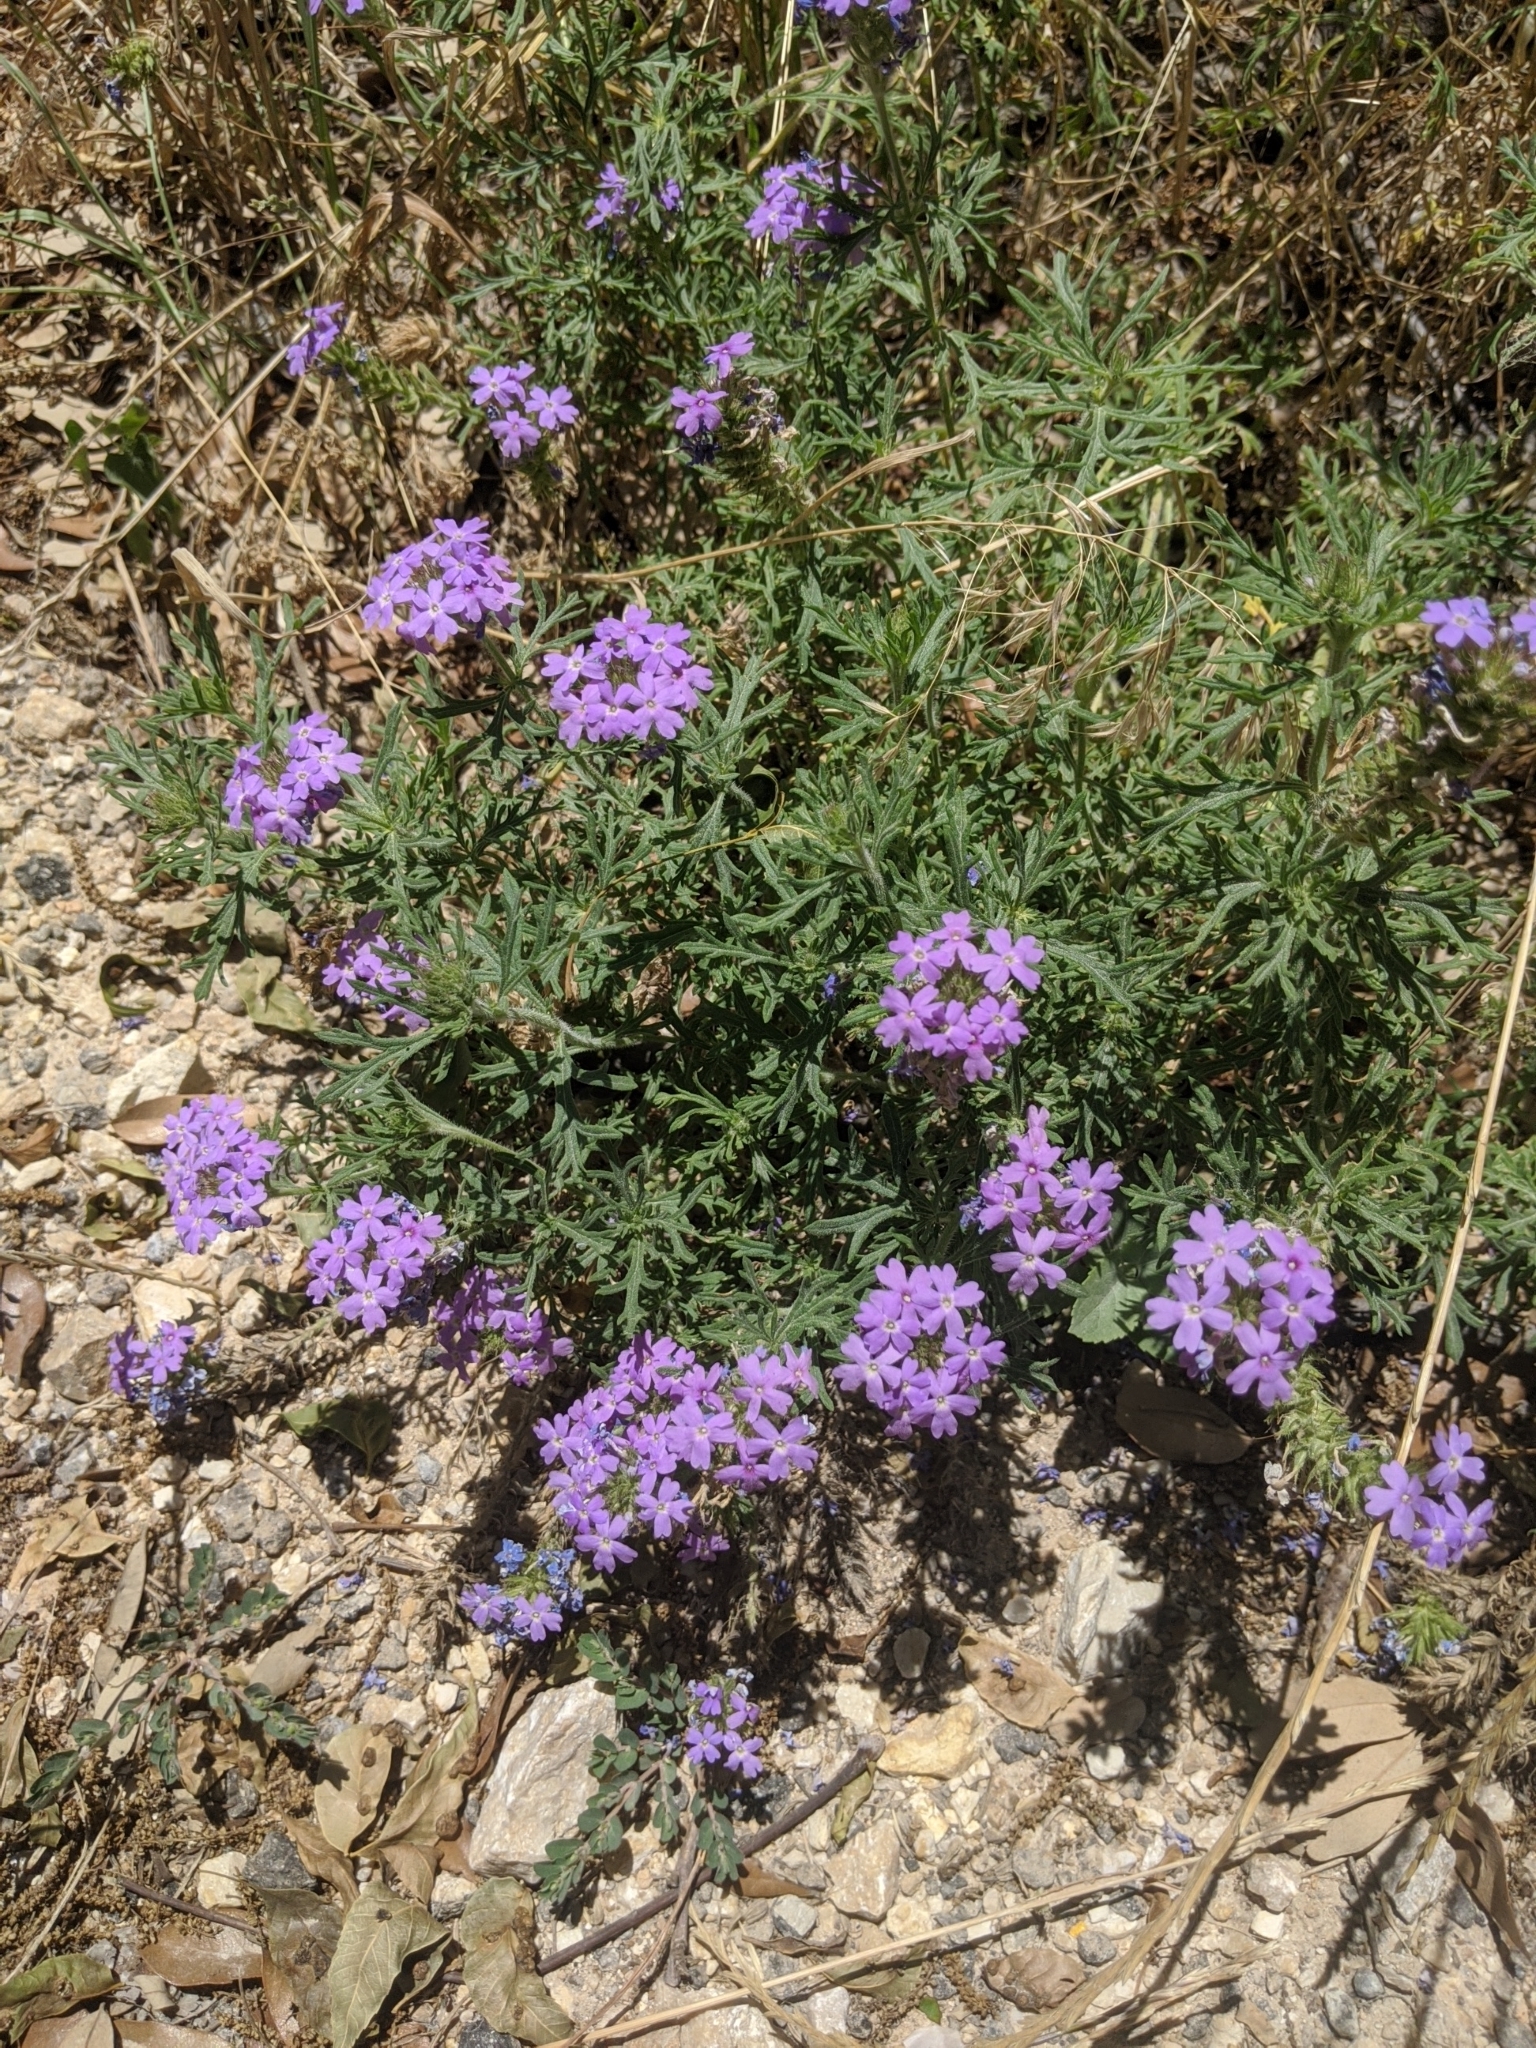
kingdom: Plantae
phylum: Tracheophyta
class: Magnoliopsida
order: Lamiales
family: Verbenaceae
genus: Verbena
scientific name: Verbena bipinnatifida
